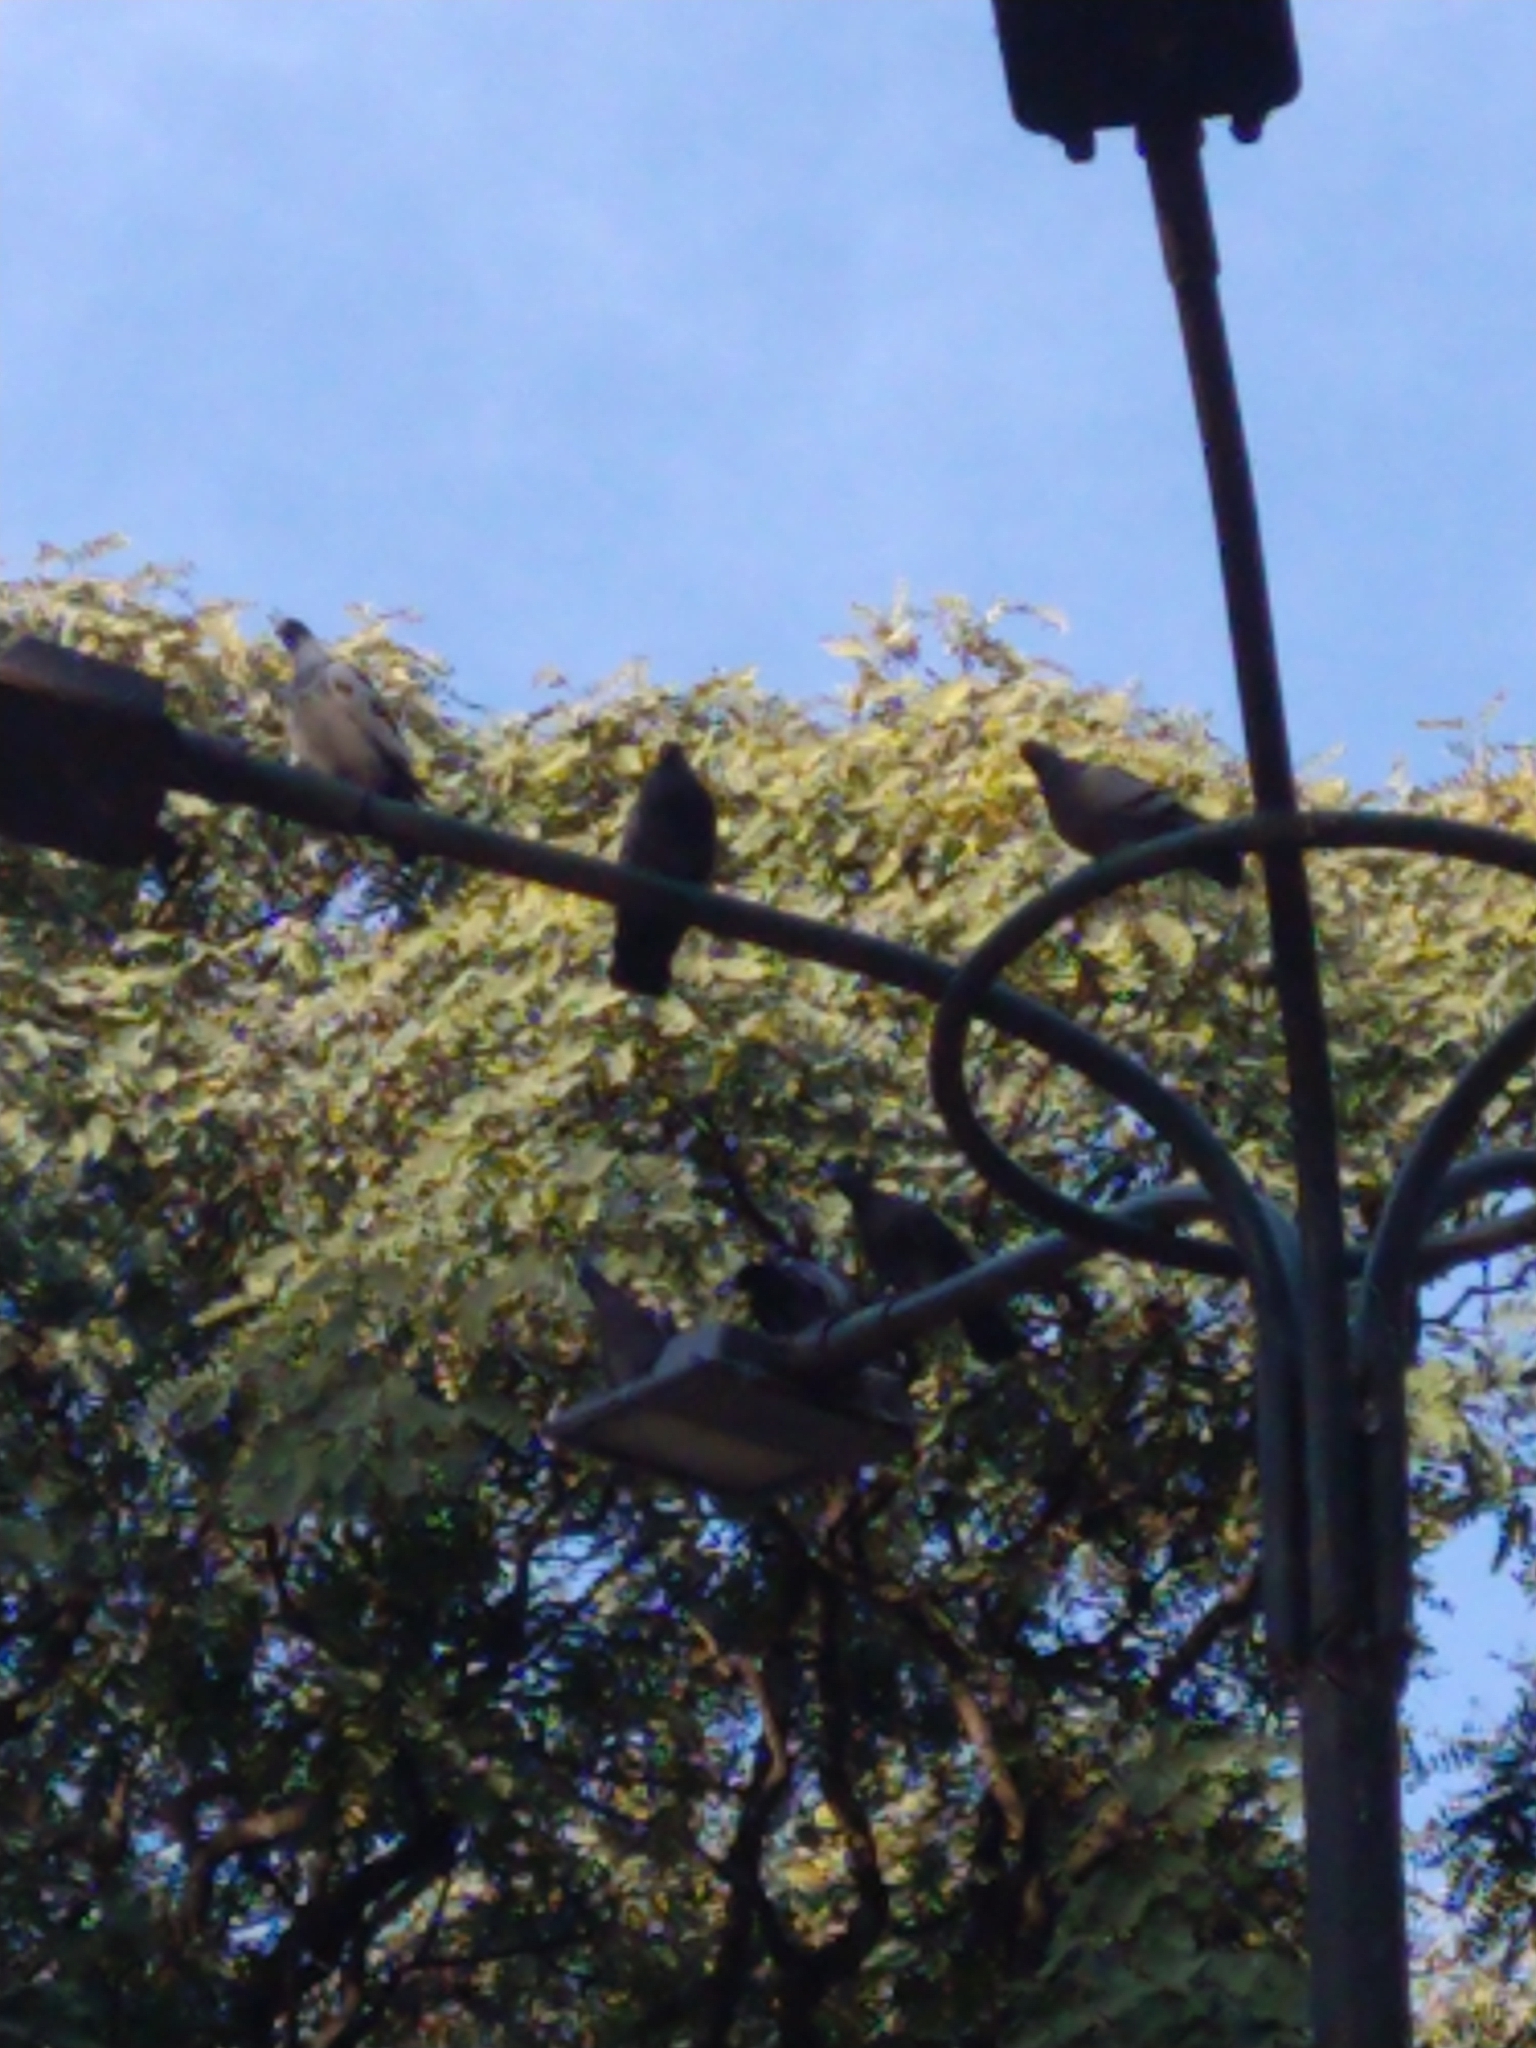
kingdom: Animalia
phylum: Chordata
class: Aves
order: Columbiformes
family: Columbidae
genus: Columba
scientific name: Columba livia
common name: Rock pigeon
